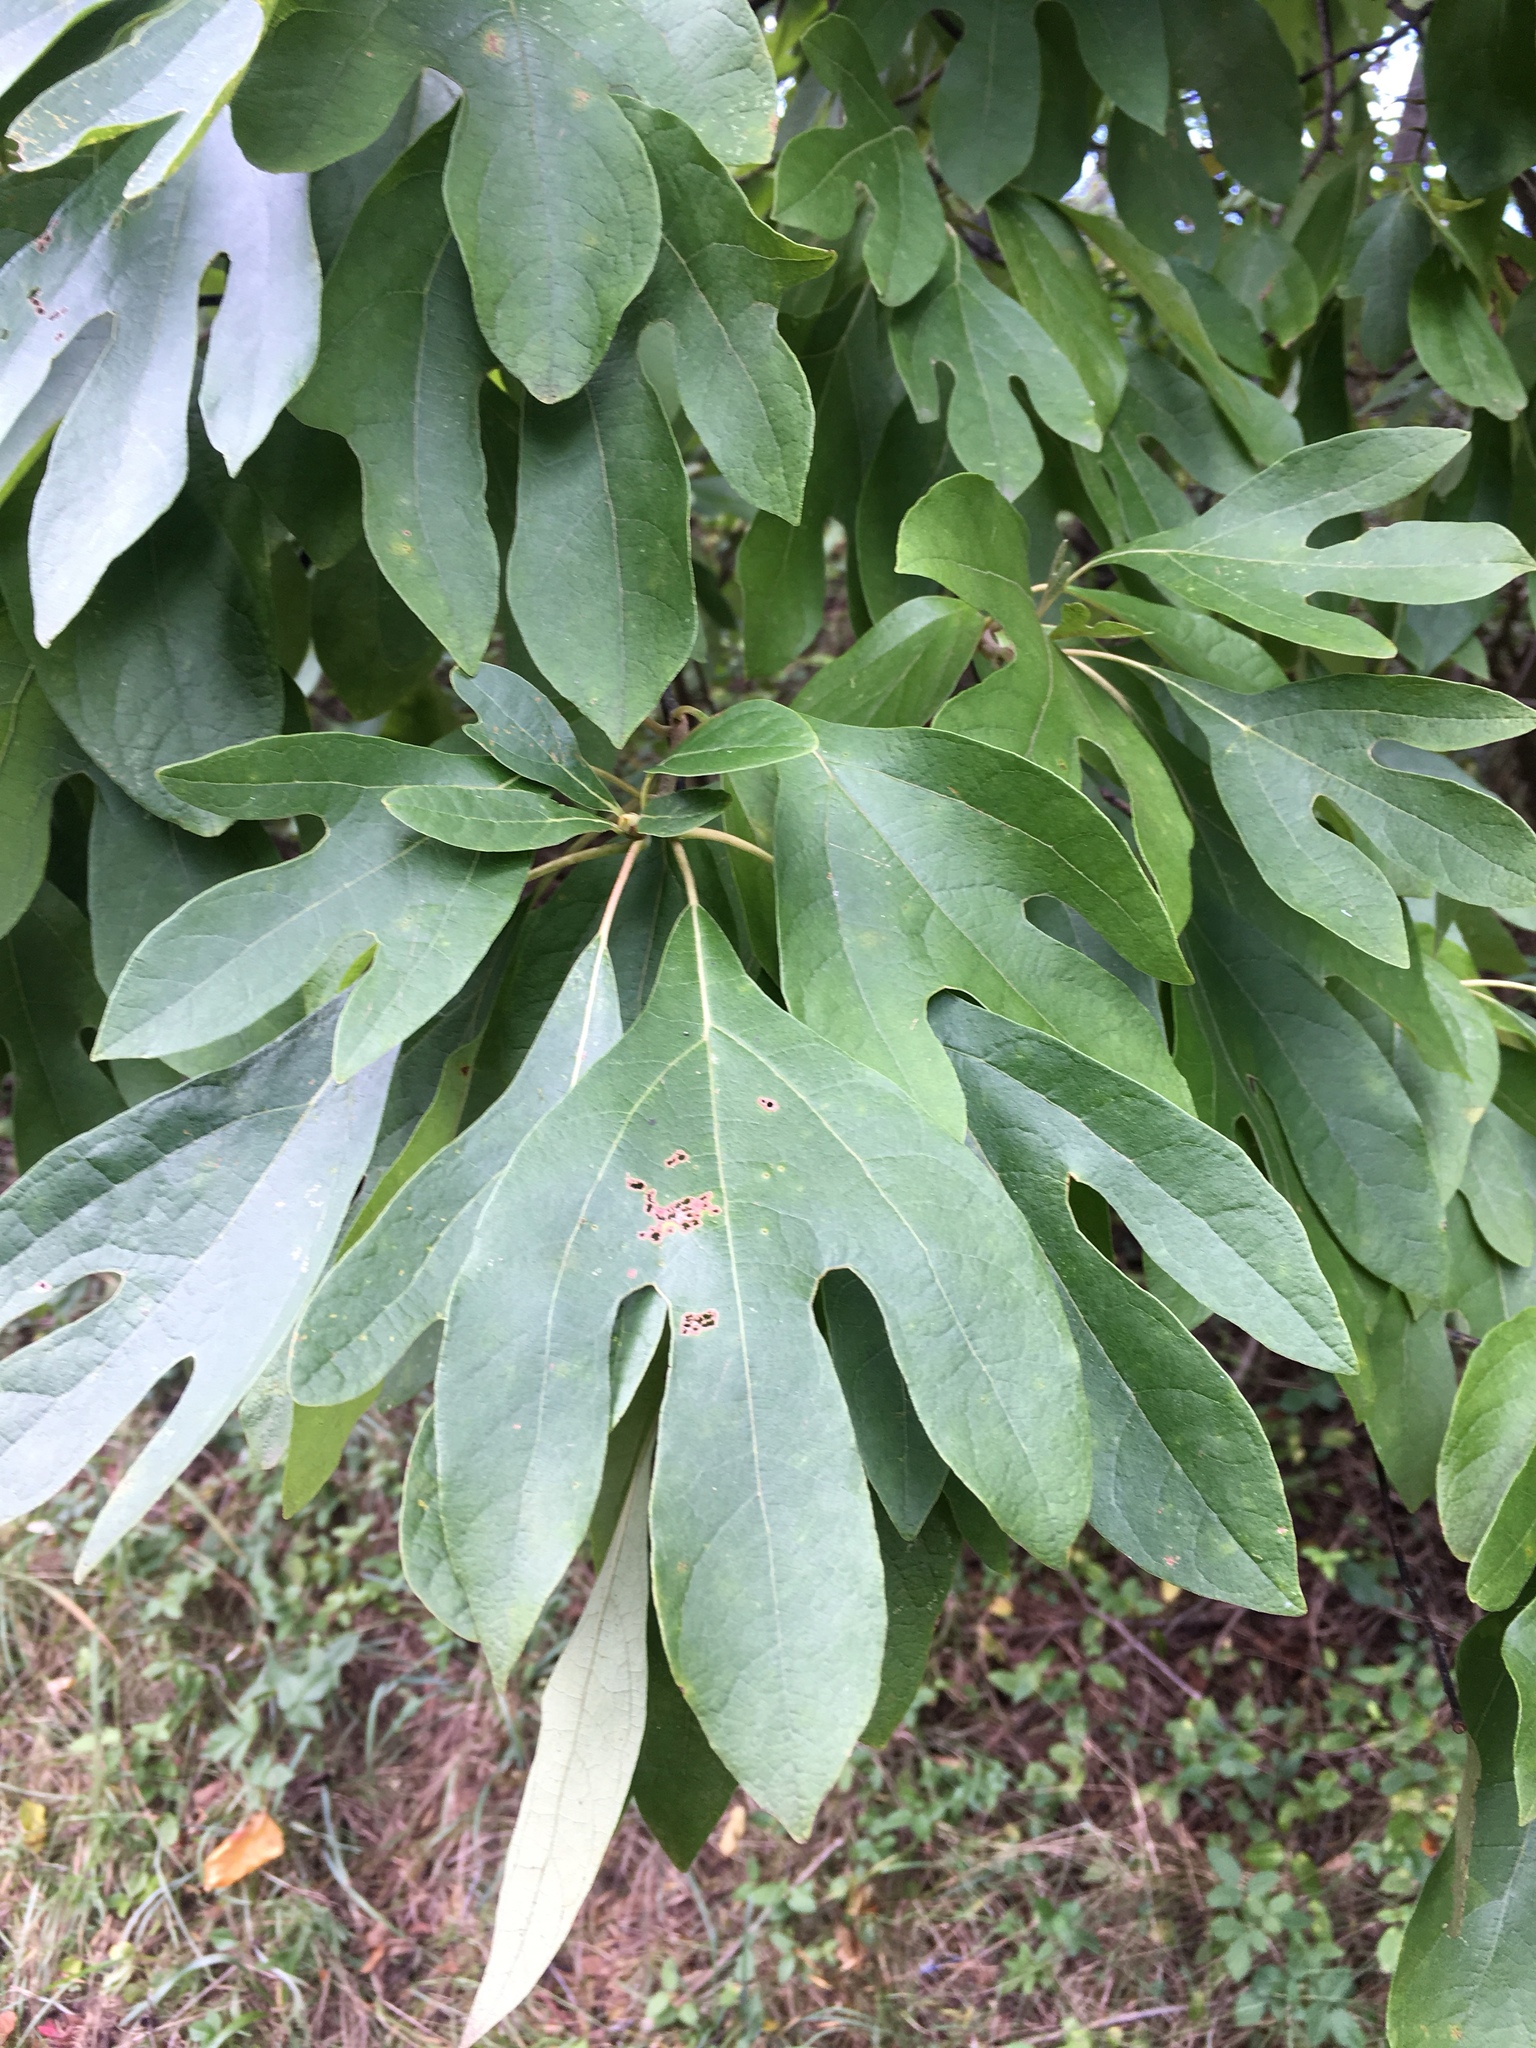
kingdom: Plantae
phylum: Tracheophyta
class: Magnoliopsida
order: Laurales
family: Lauraceae
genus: Sassafras
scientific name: Sassafras albidum
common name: Sassafras
